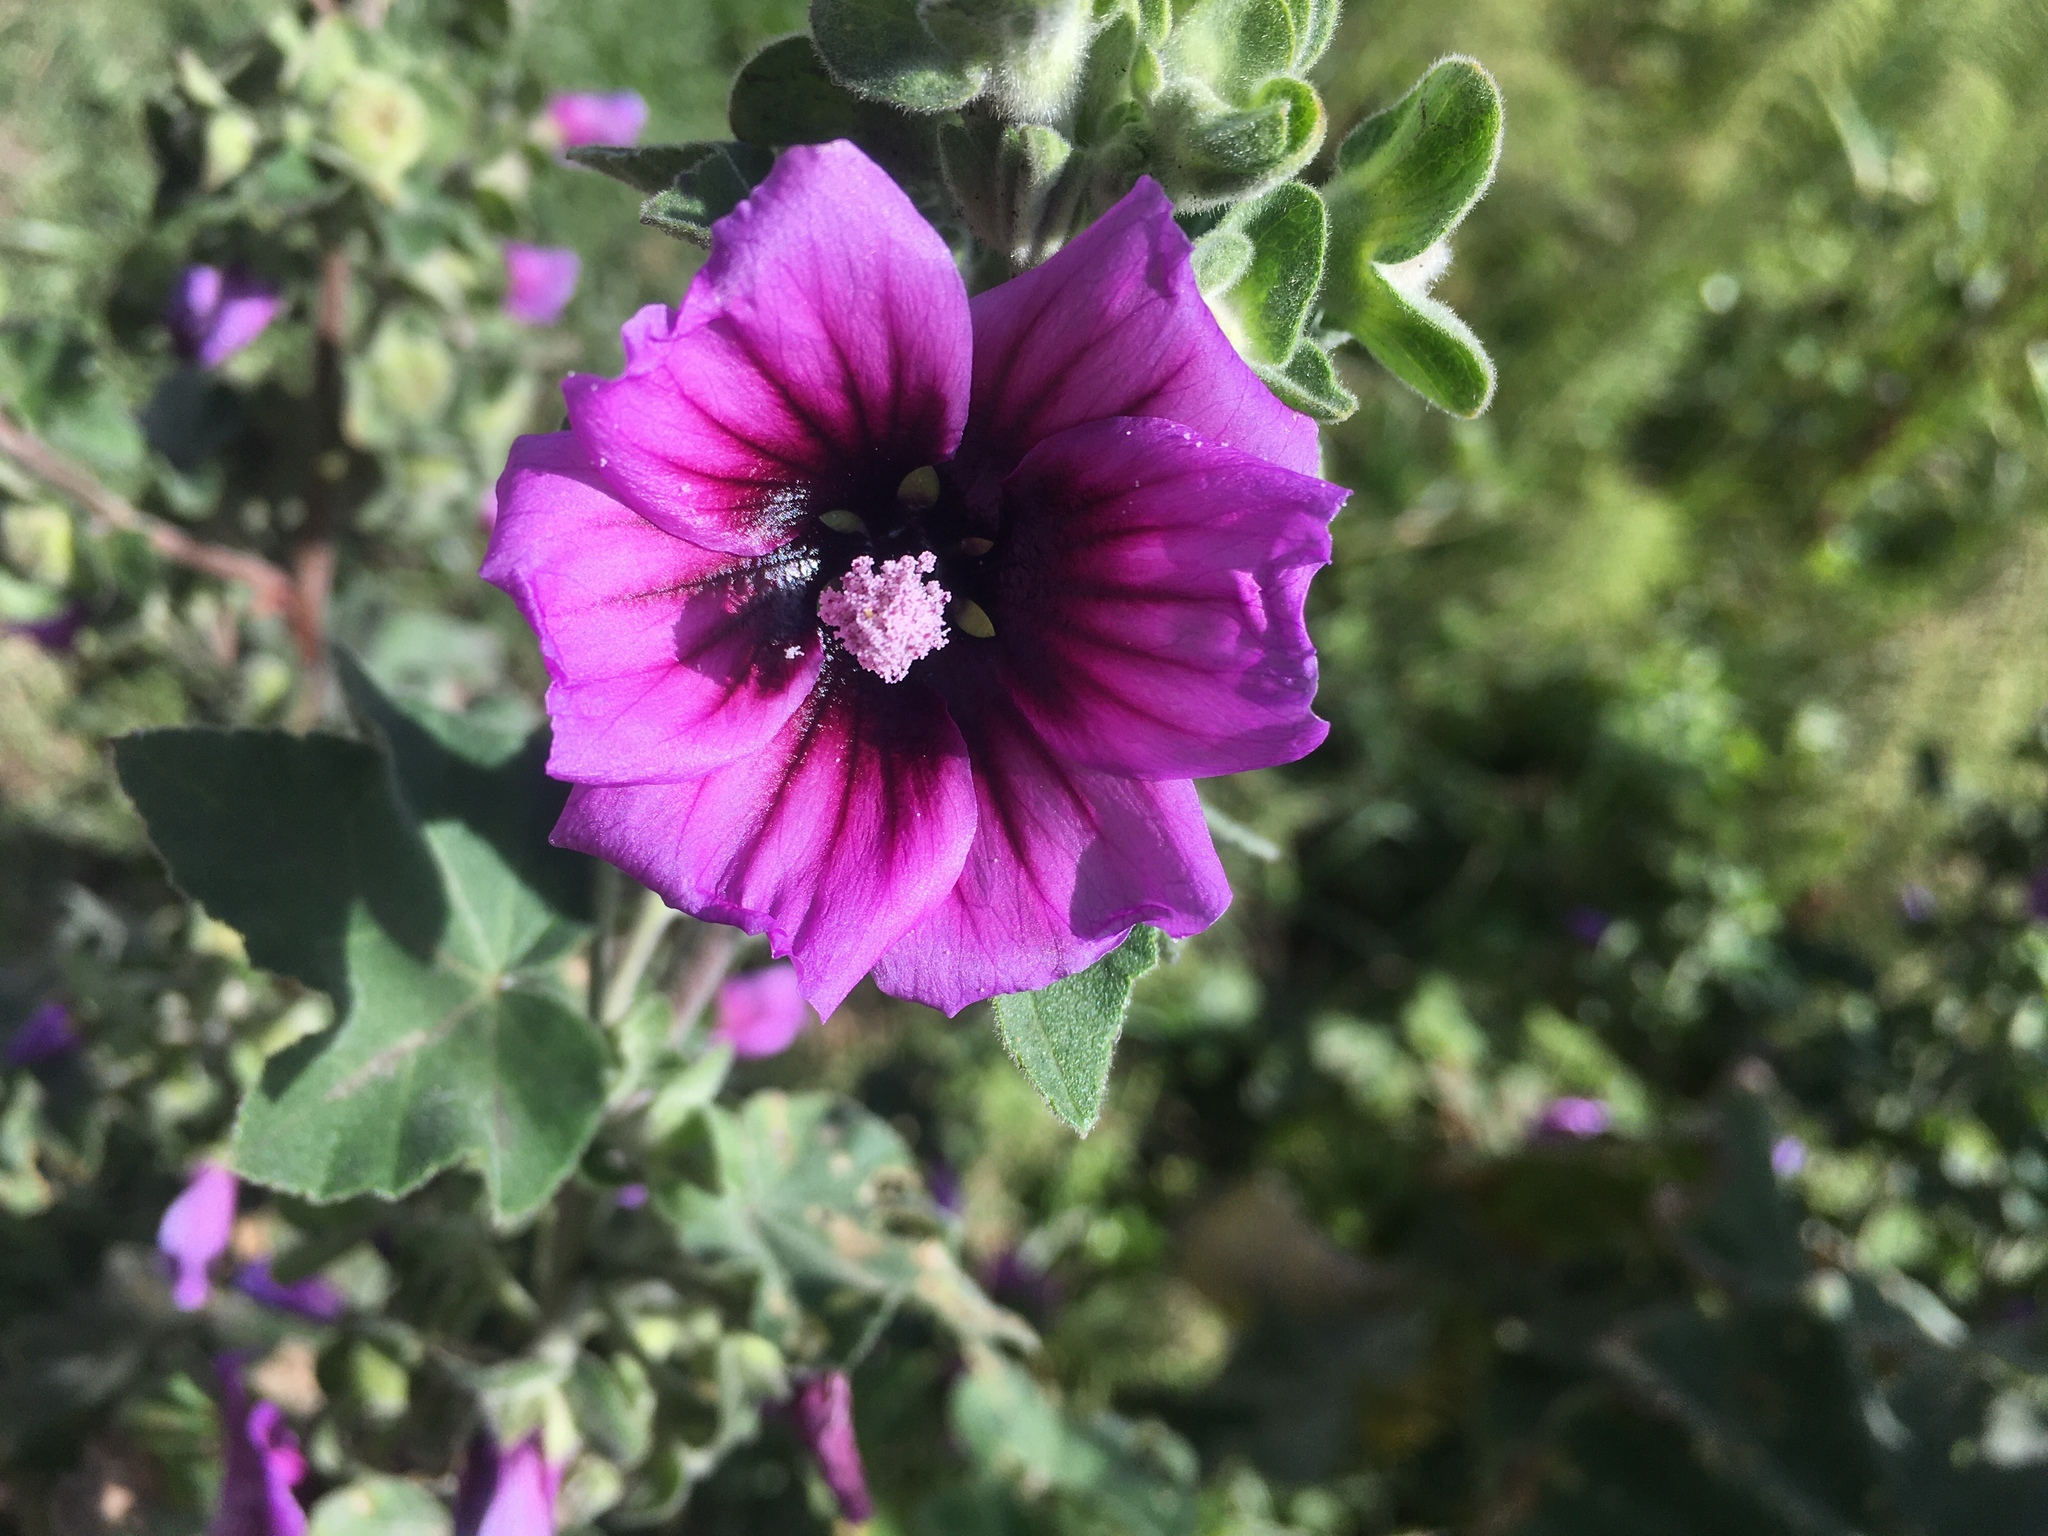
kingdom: Plantae
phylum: Tracheophyta
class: Magnoliopsida
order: Malvales
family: Malvaceae
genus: Malva
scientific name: Malva arborea
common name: Tree mallow
